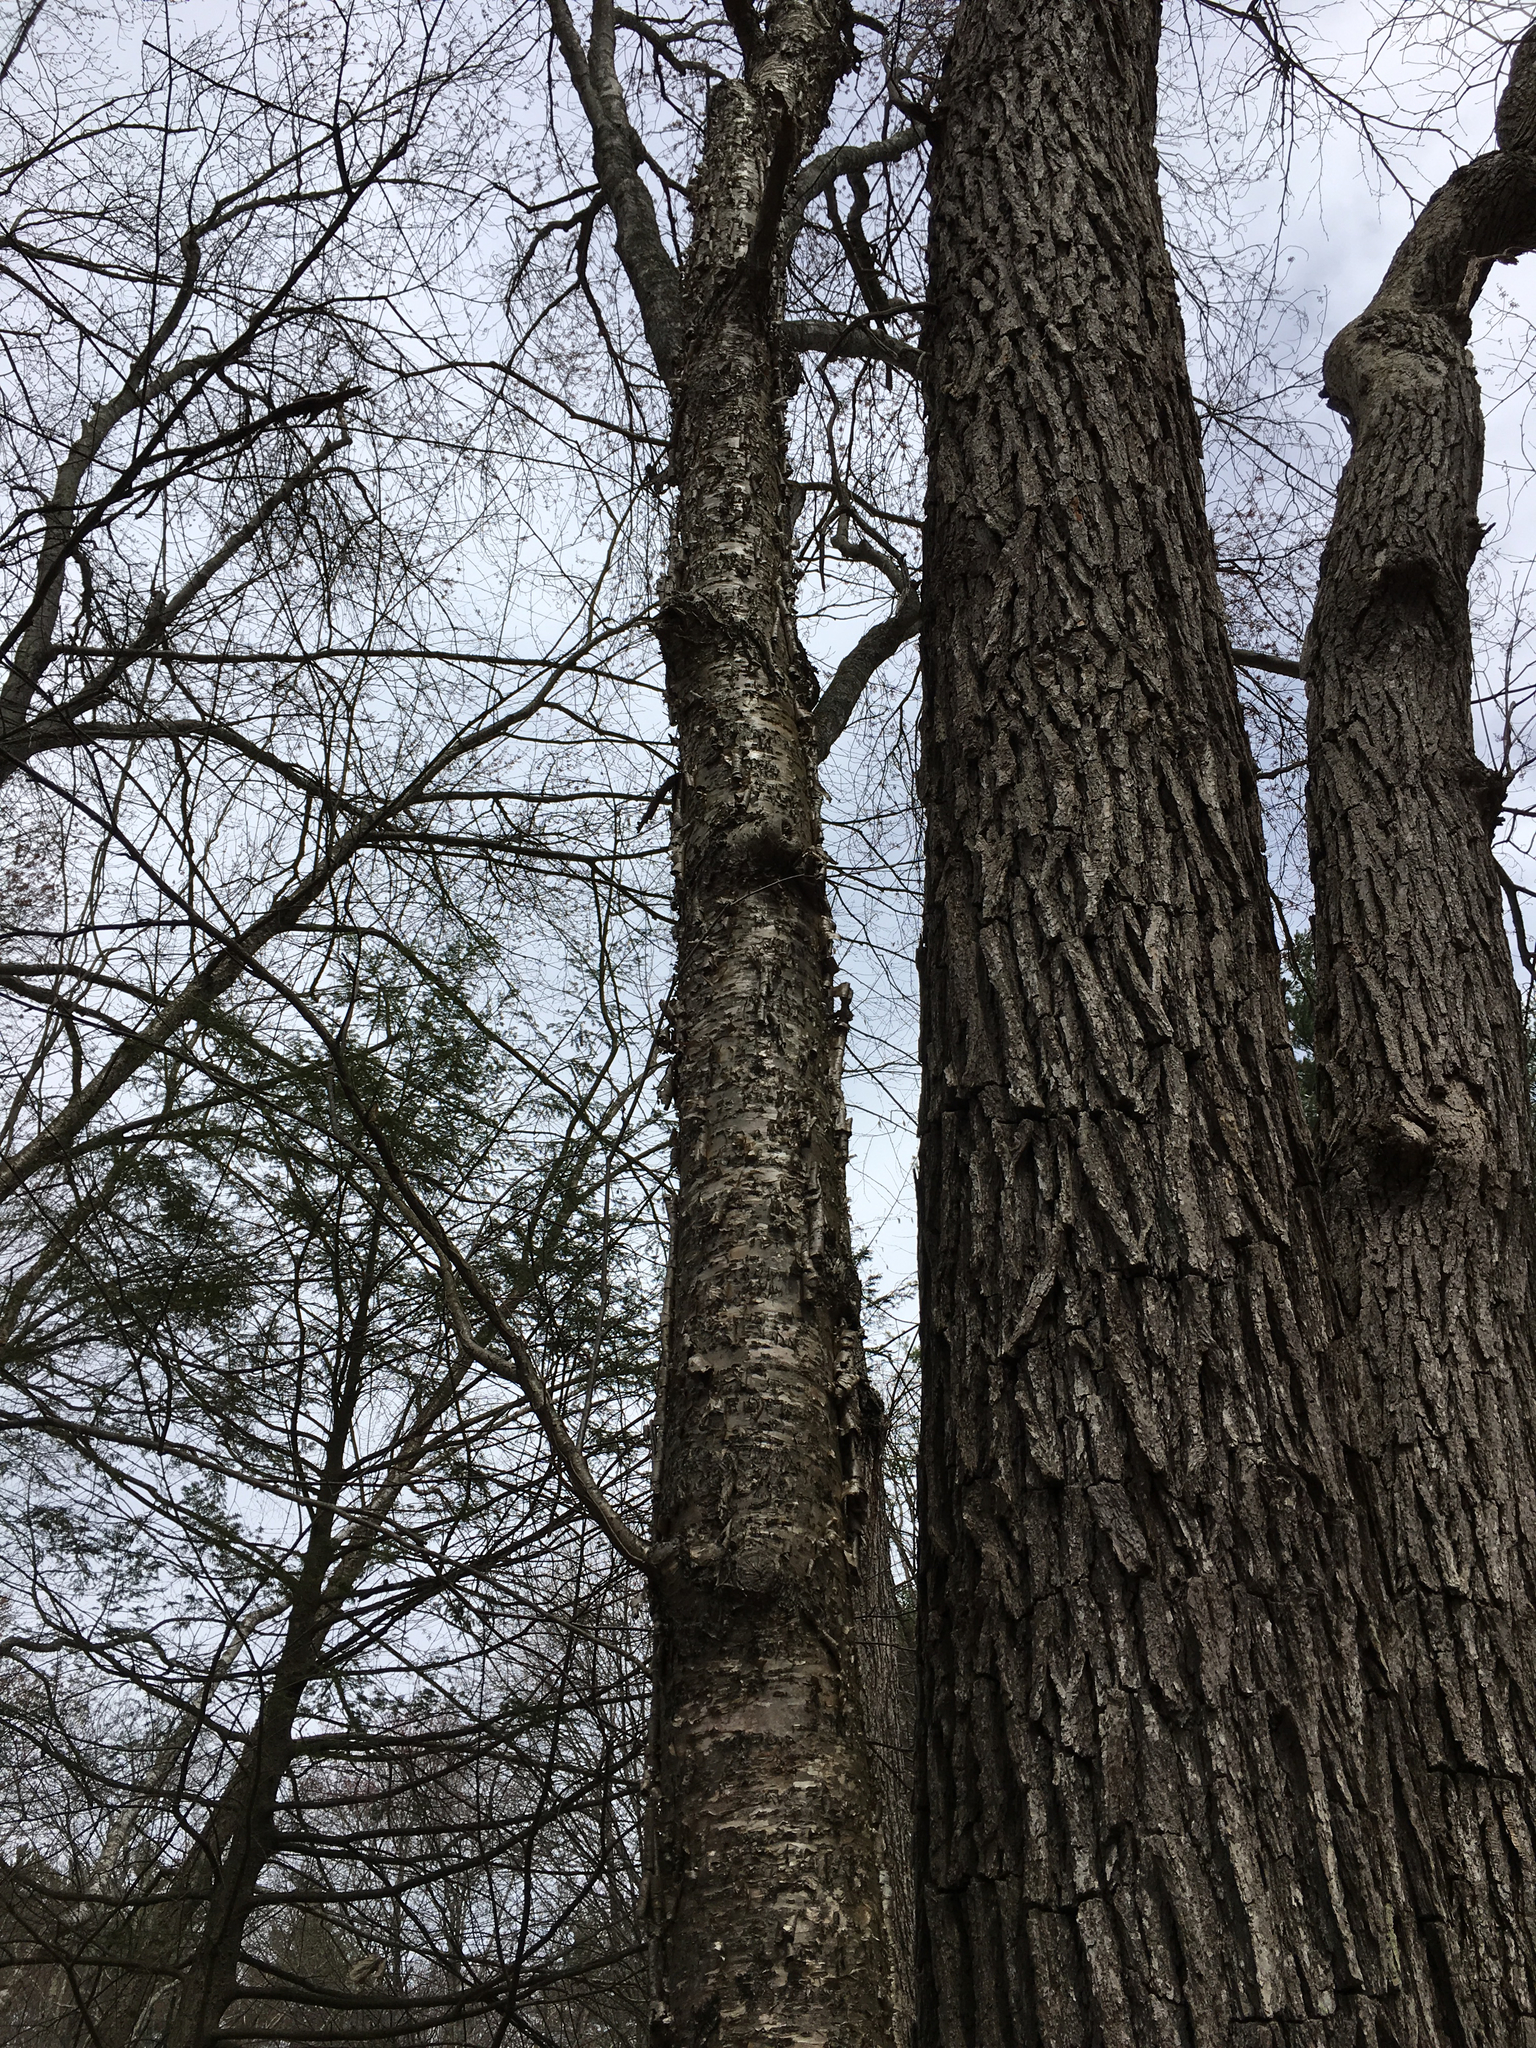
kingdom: Plantae
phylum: Tracheophyta
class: Magnoliopsida
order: Fagales
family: Betulaceae
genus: Betula
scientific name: Betula alleghaniensis
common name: Yellow birch
